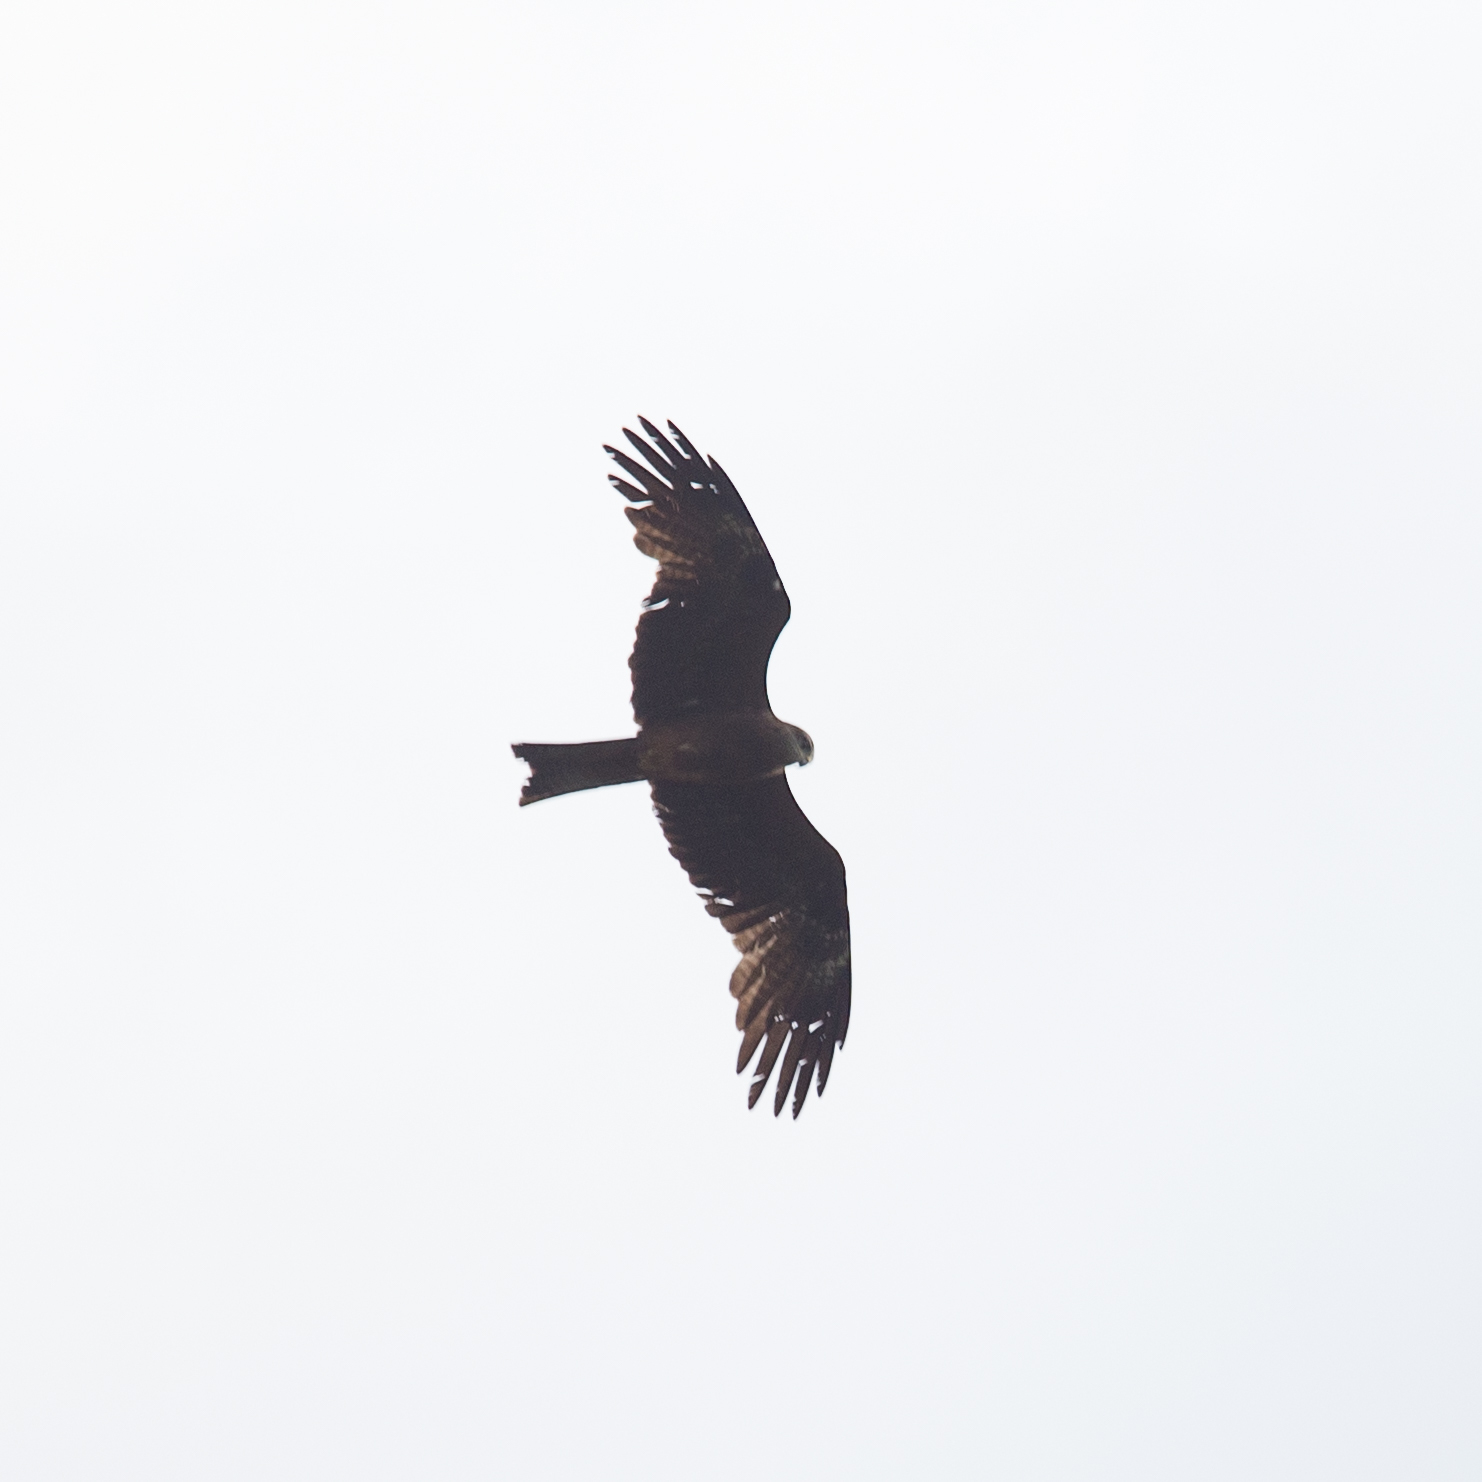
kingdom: Animalia
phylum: Chordata
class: Aves
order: Accipitriformes
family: Accipitridae
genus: Milvus
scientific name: Milvus migrans
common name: Black kite
